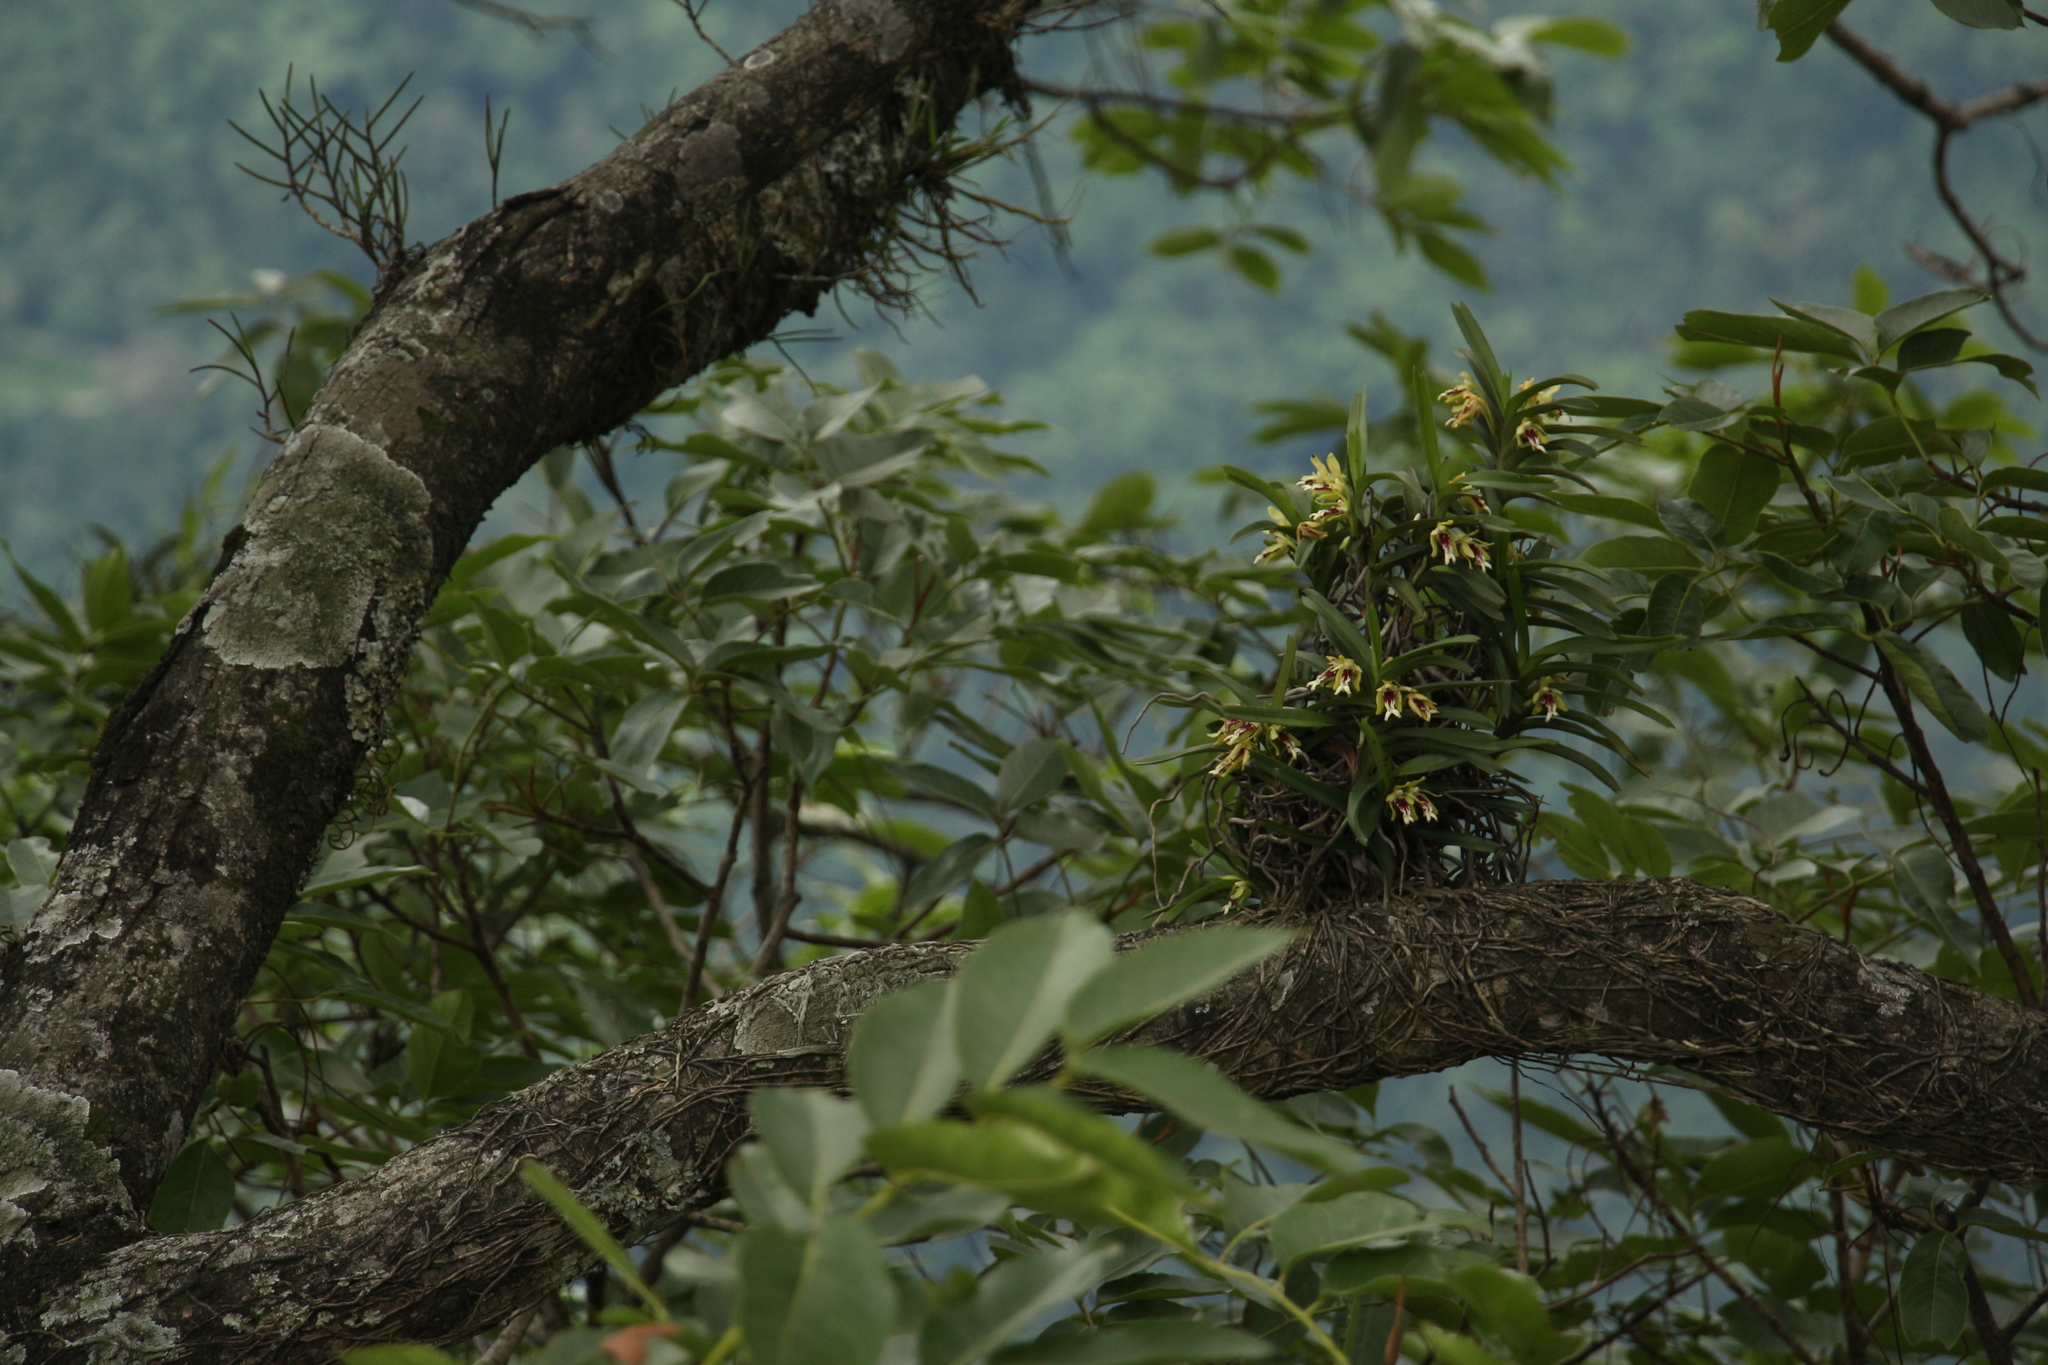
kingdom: Plantae
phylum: Tracheophyta
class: Liliopsida
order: Asparagales
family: Orchidaceae
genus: Vanda
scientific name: Vanda cristata
